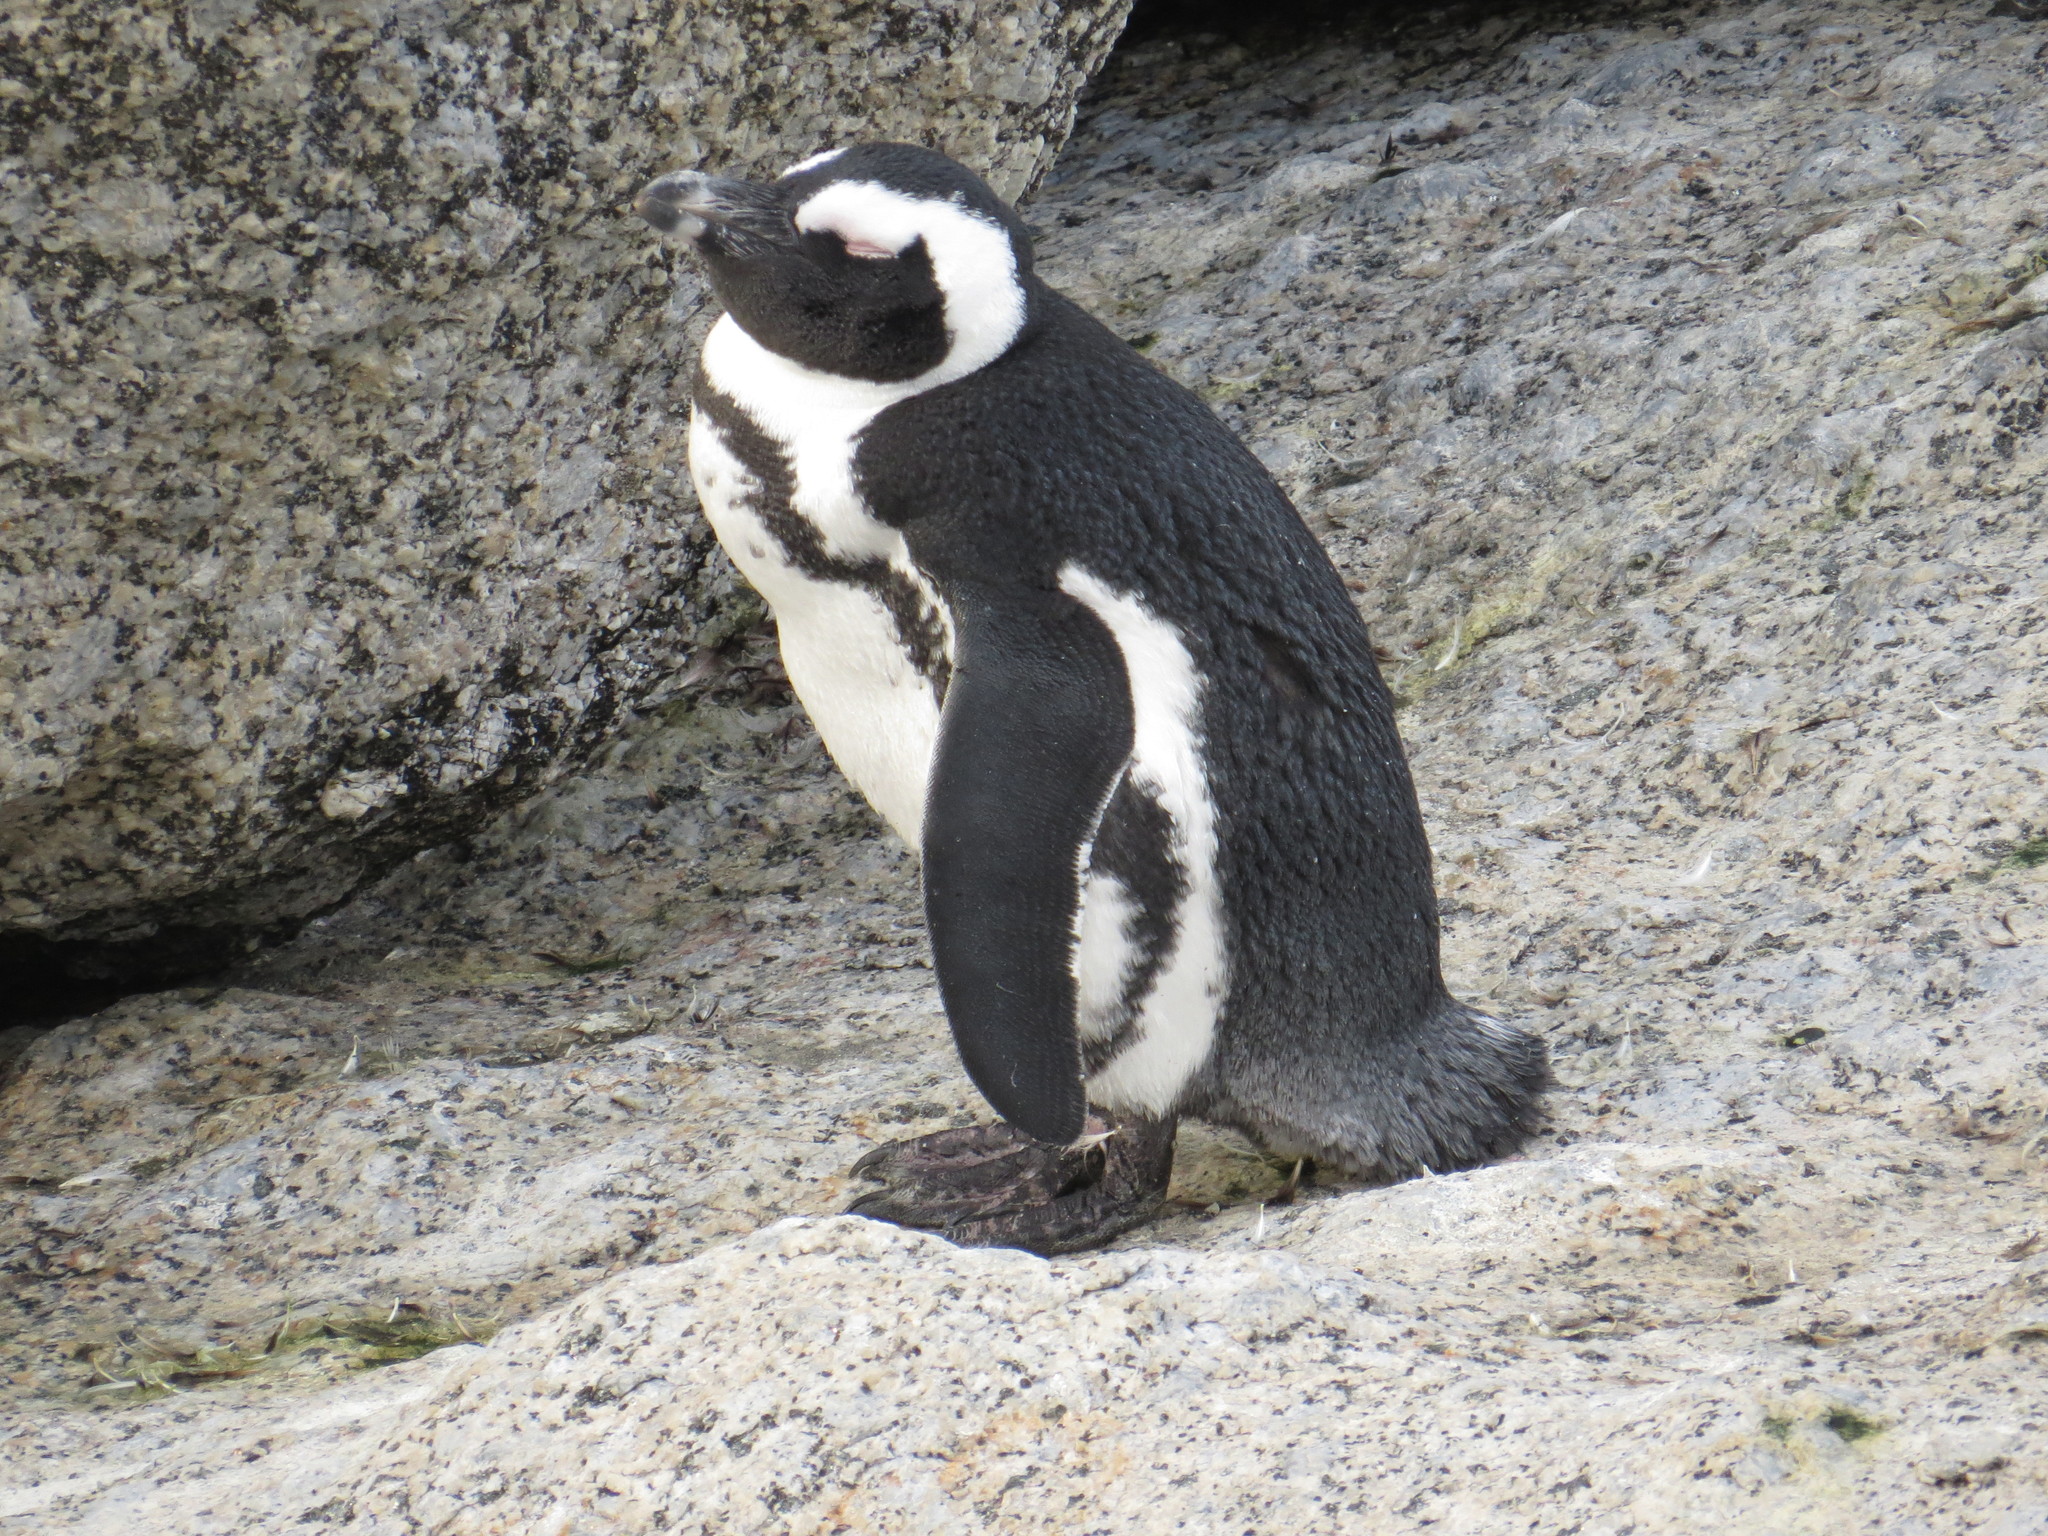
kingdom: Animalia
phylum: Chordata
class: Aves
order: Sphenisciformes
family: Spheniscidae
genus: Spheniscus
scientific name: Spheniscus demersus
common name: African penguin
